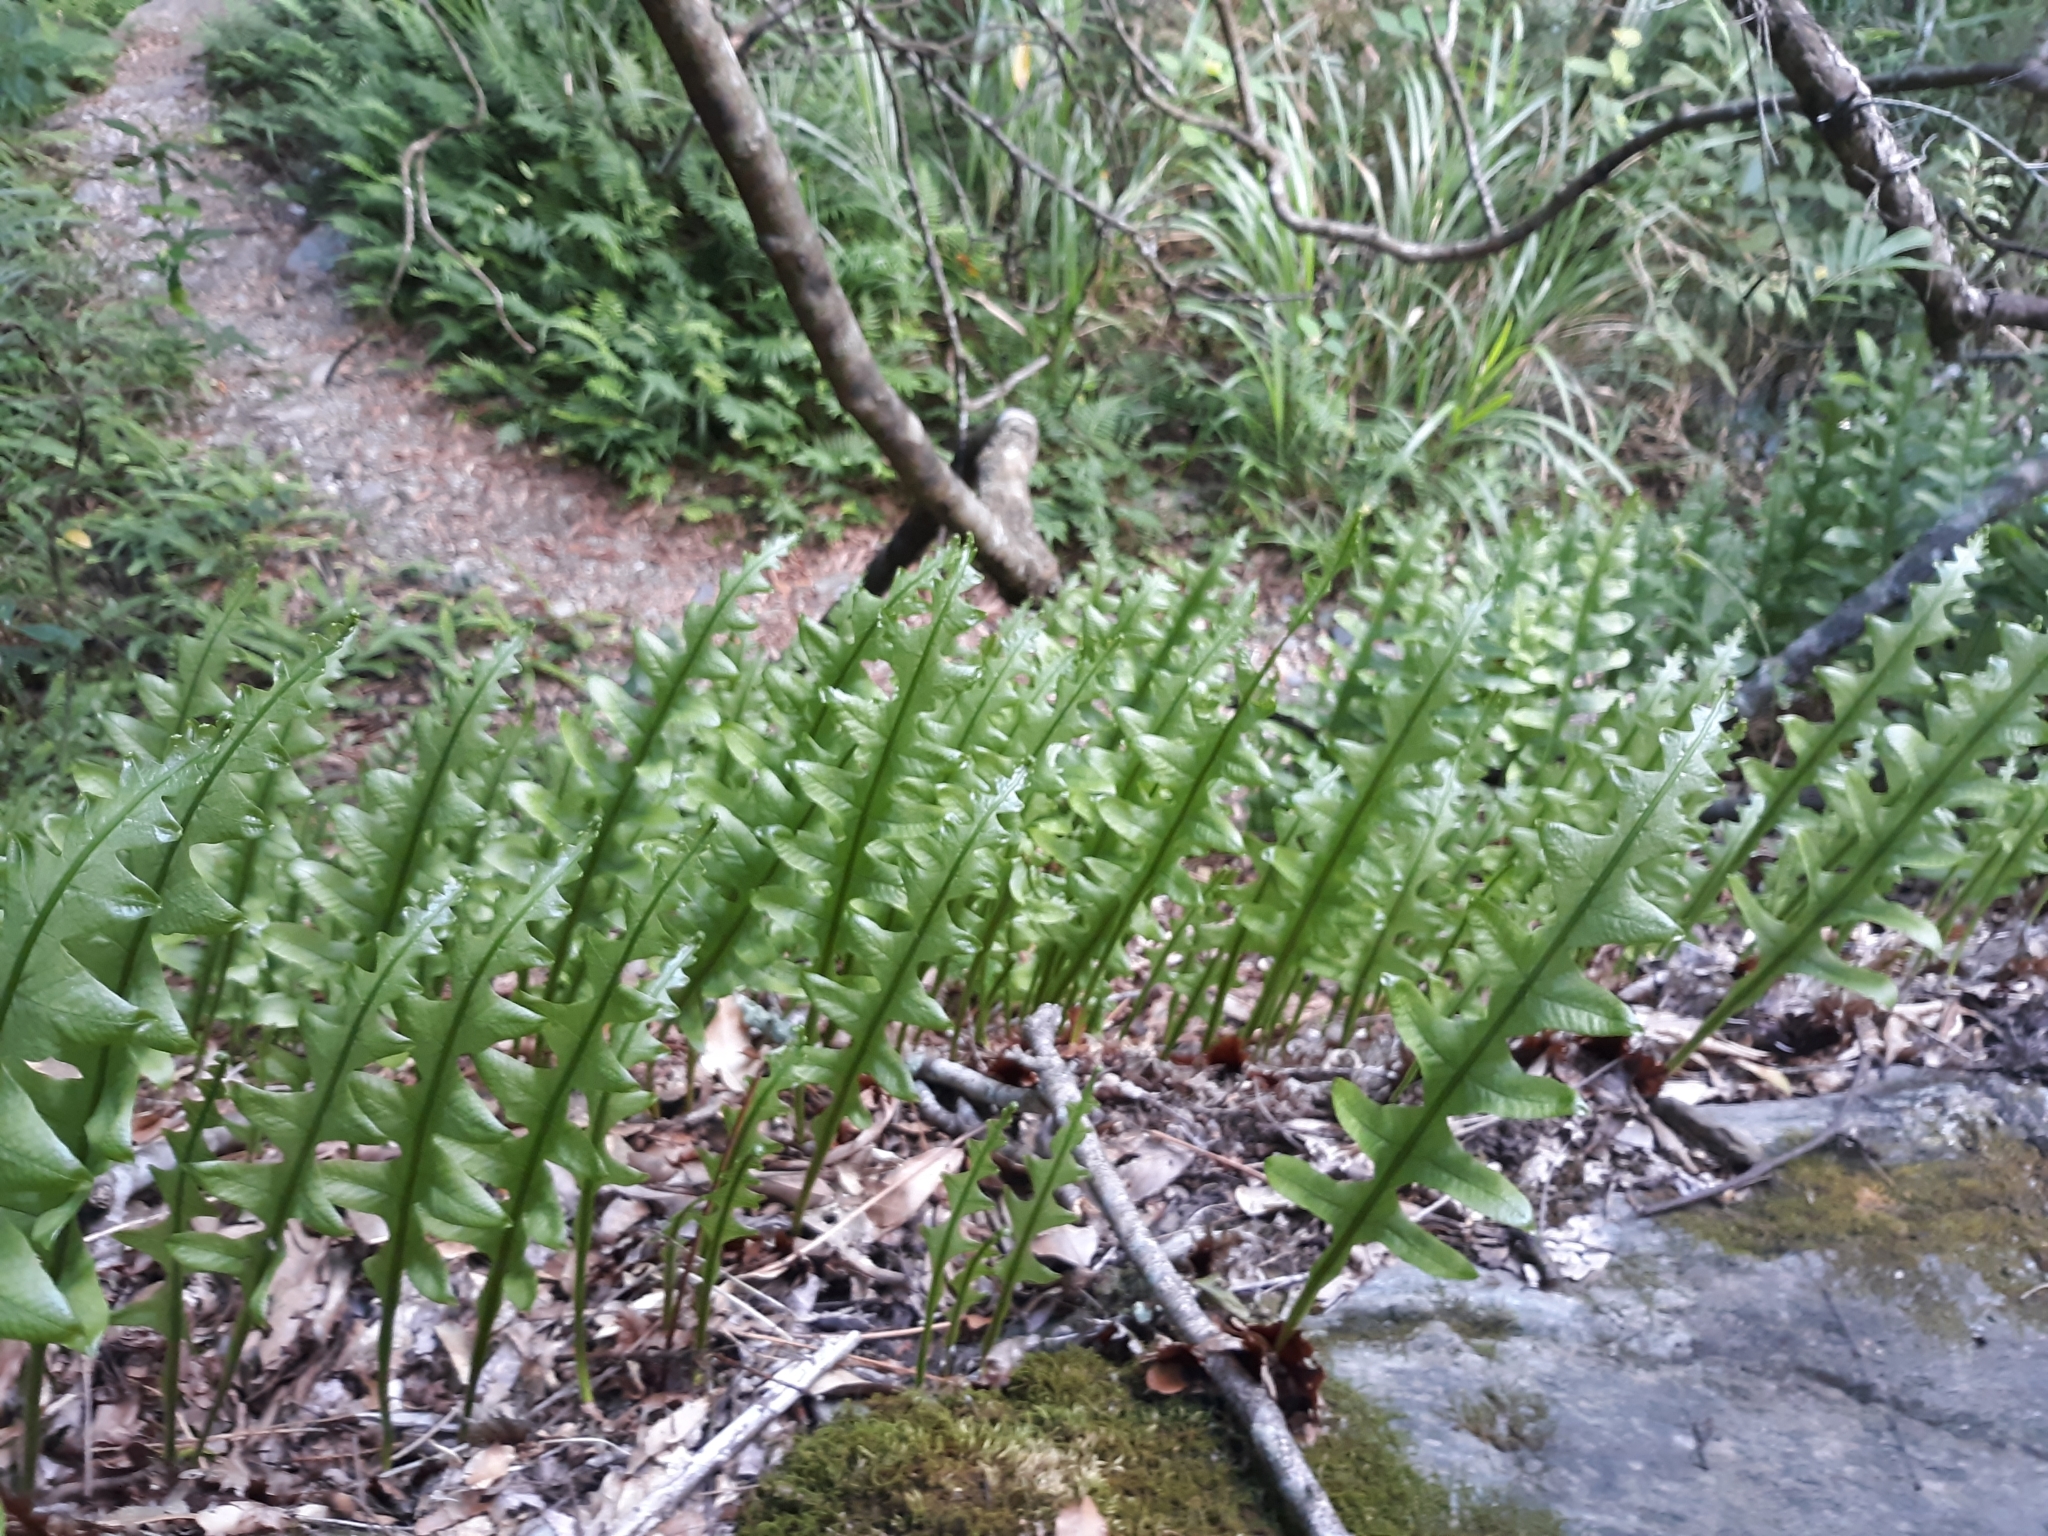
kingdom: Plantae
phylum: Tracheophyta
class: Polypodiopsida
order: Polypodiales
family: Polypodiaceae
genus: Drynaria
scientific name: Drynaria roosii
